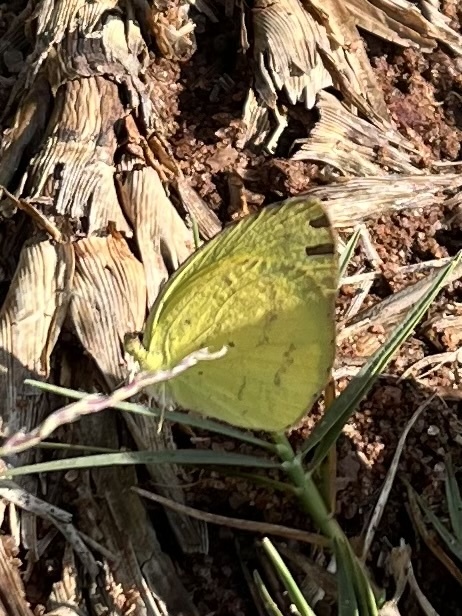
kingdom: Animalia
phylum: Arthropoda
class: Insecta
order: Lepidoptera
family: Pieridae
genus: Eurema
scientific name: Eurema brigitta
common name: Small grass yellow
